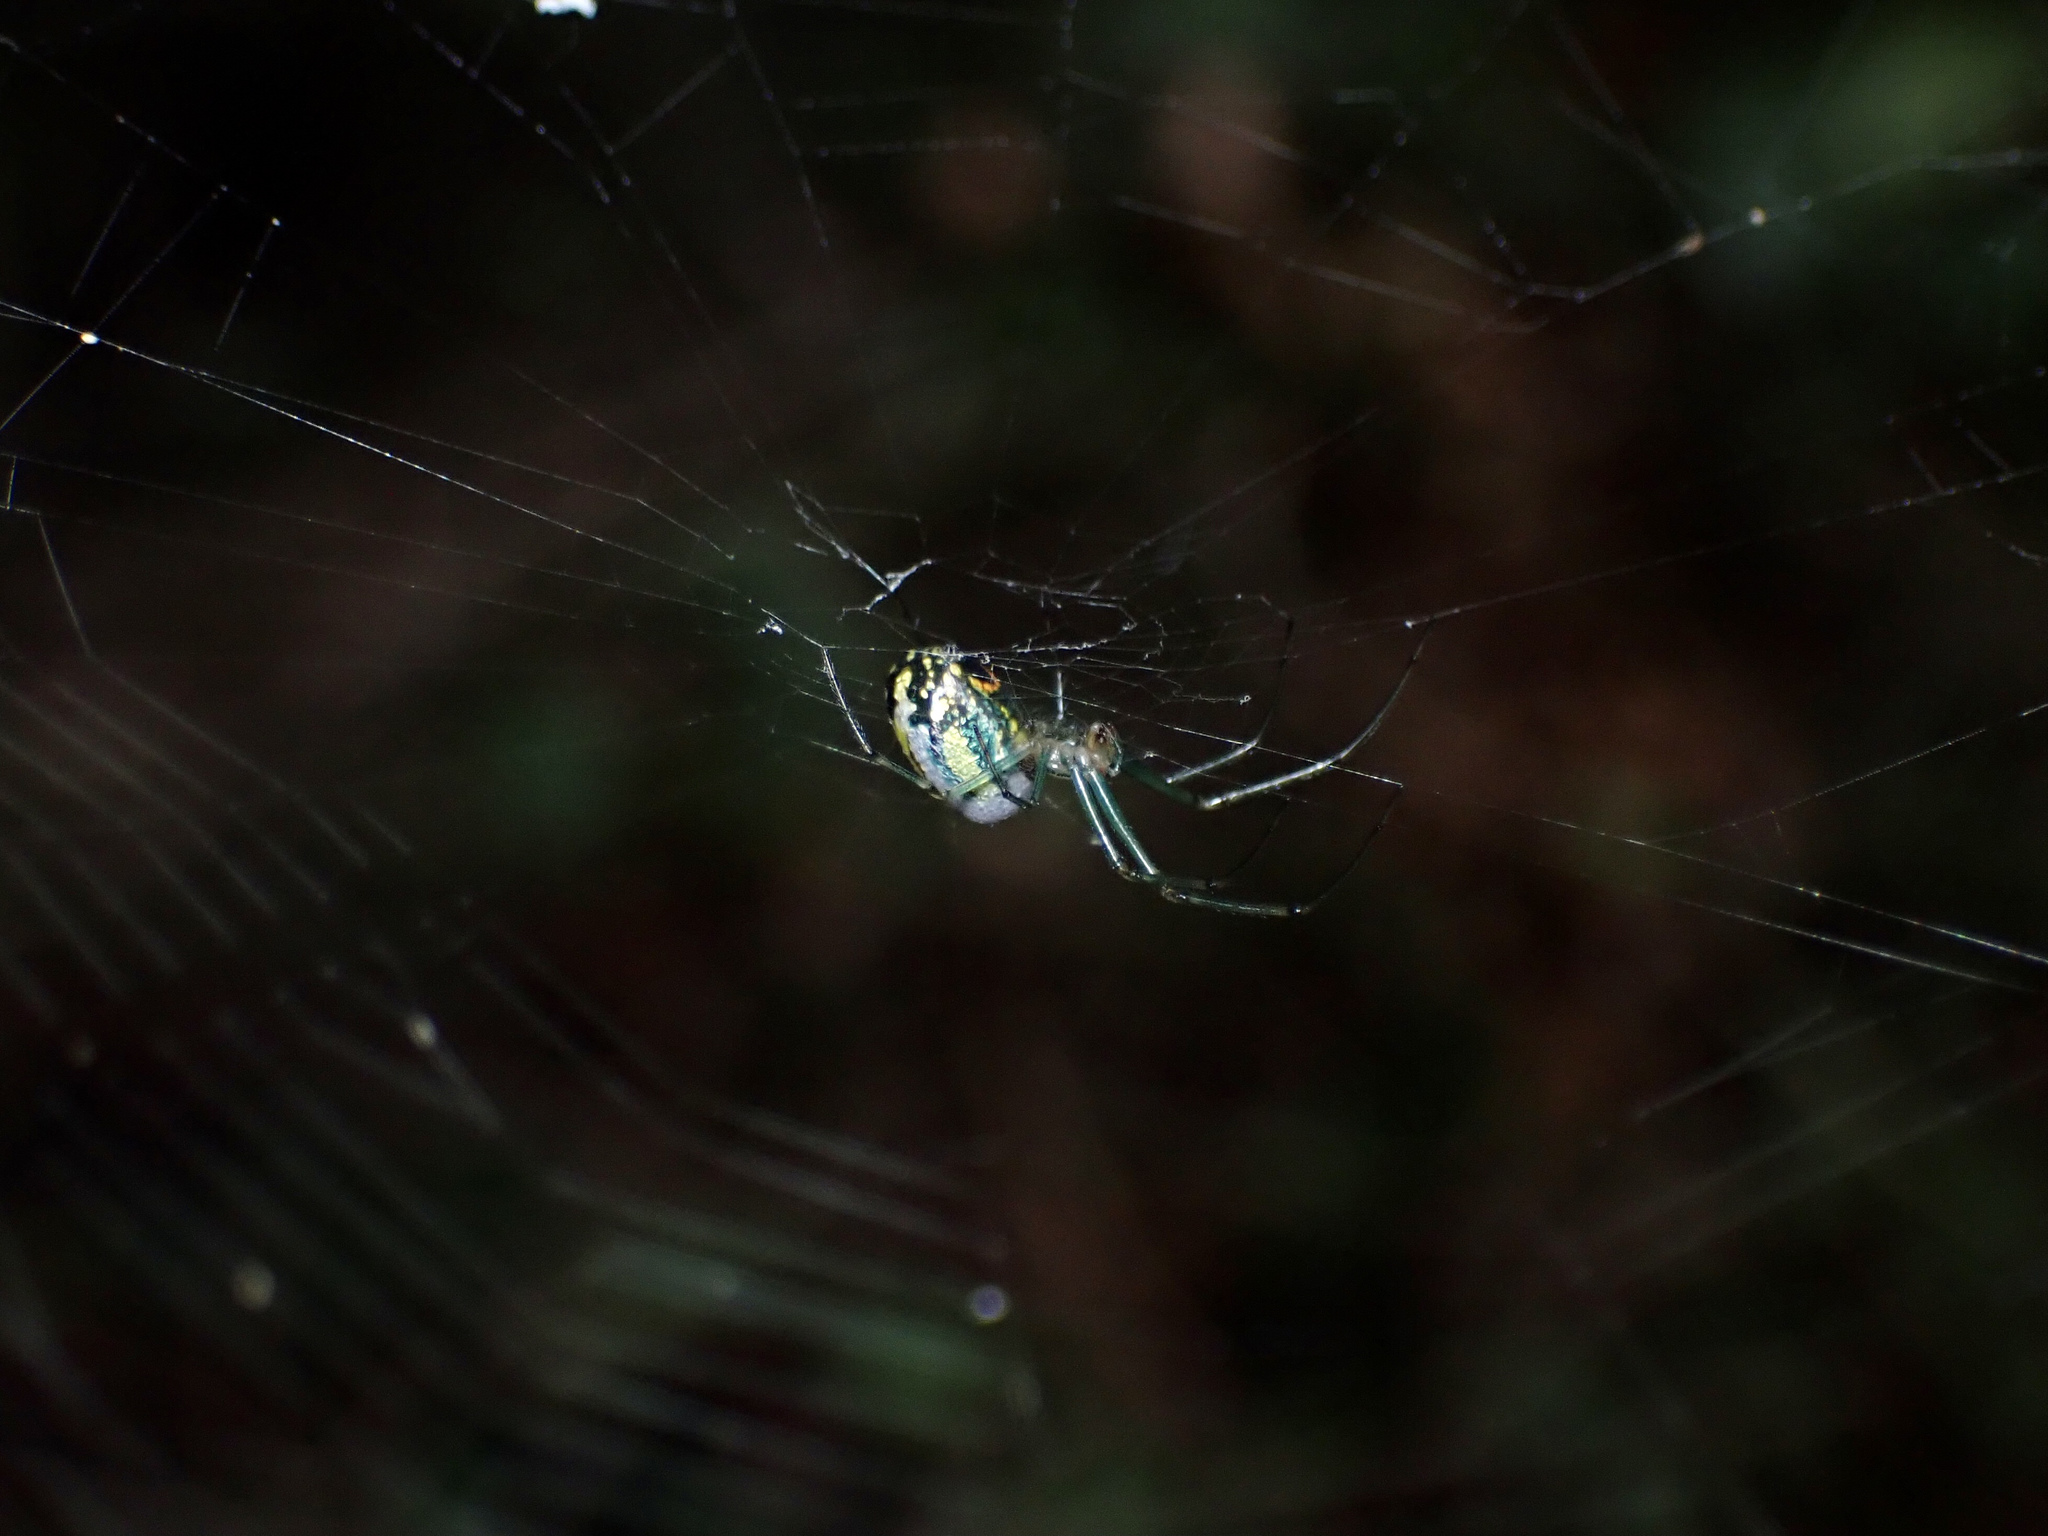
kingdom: Animalia
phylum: Arthropoda
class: Arachnida
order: Araneae
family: Tetragnathidae
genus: Leucauge
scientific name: Leucauge venusta
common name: Longjawed orb weavers
